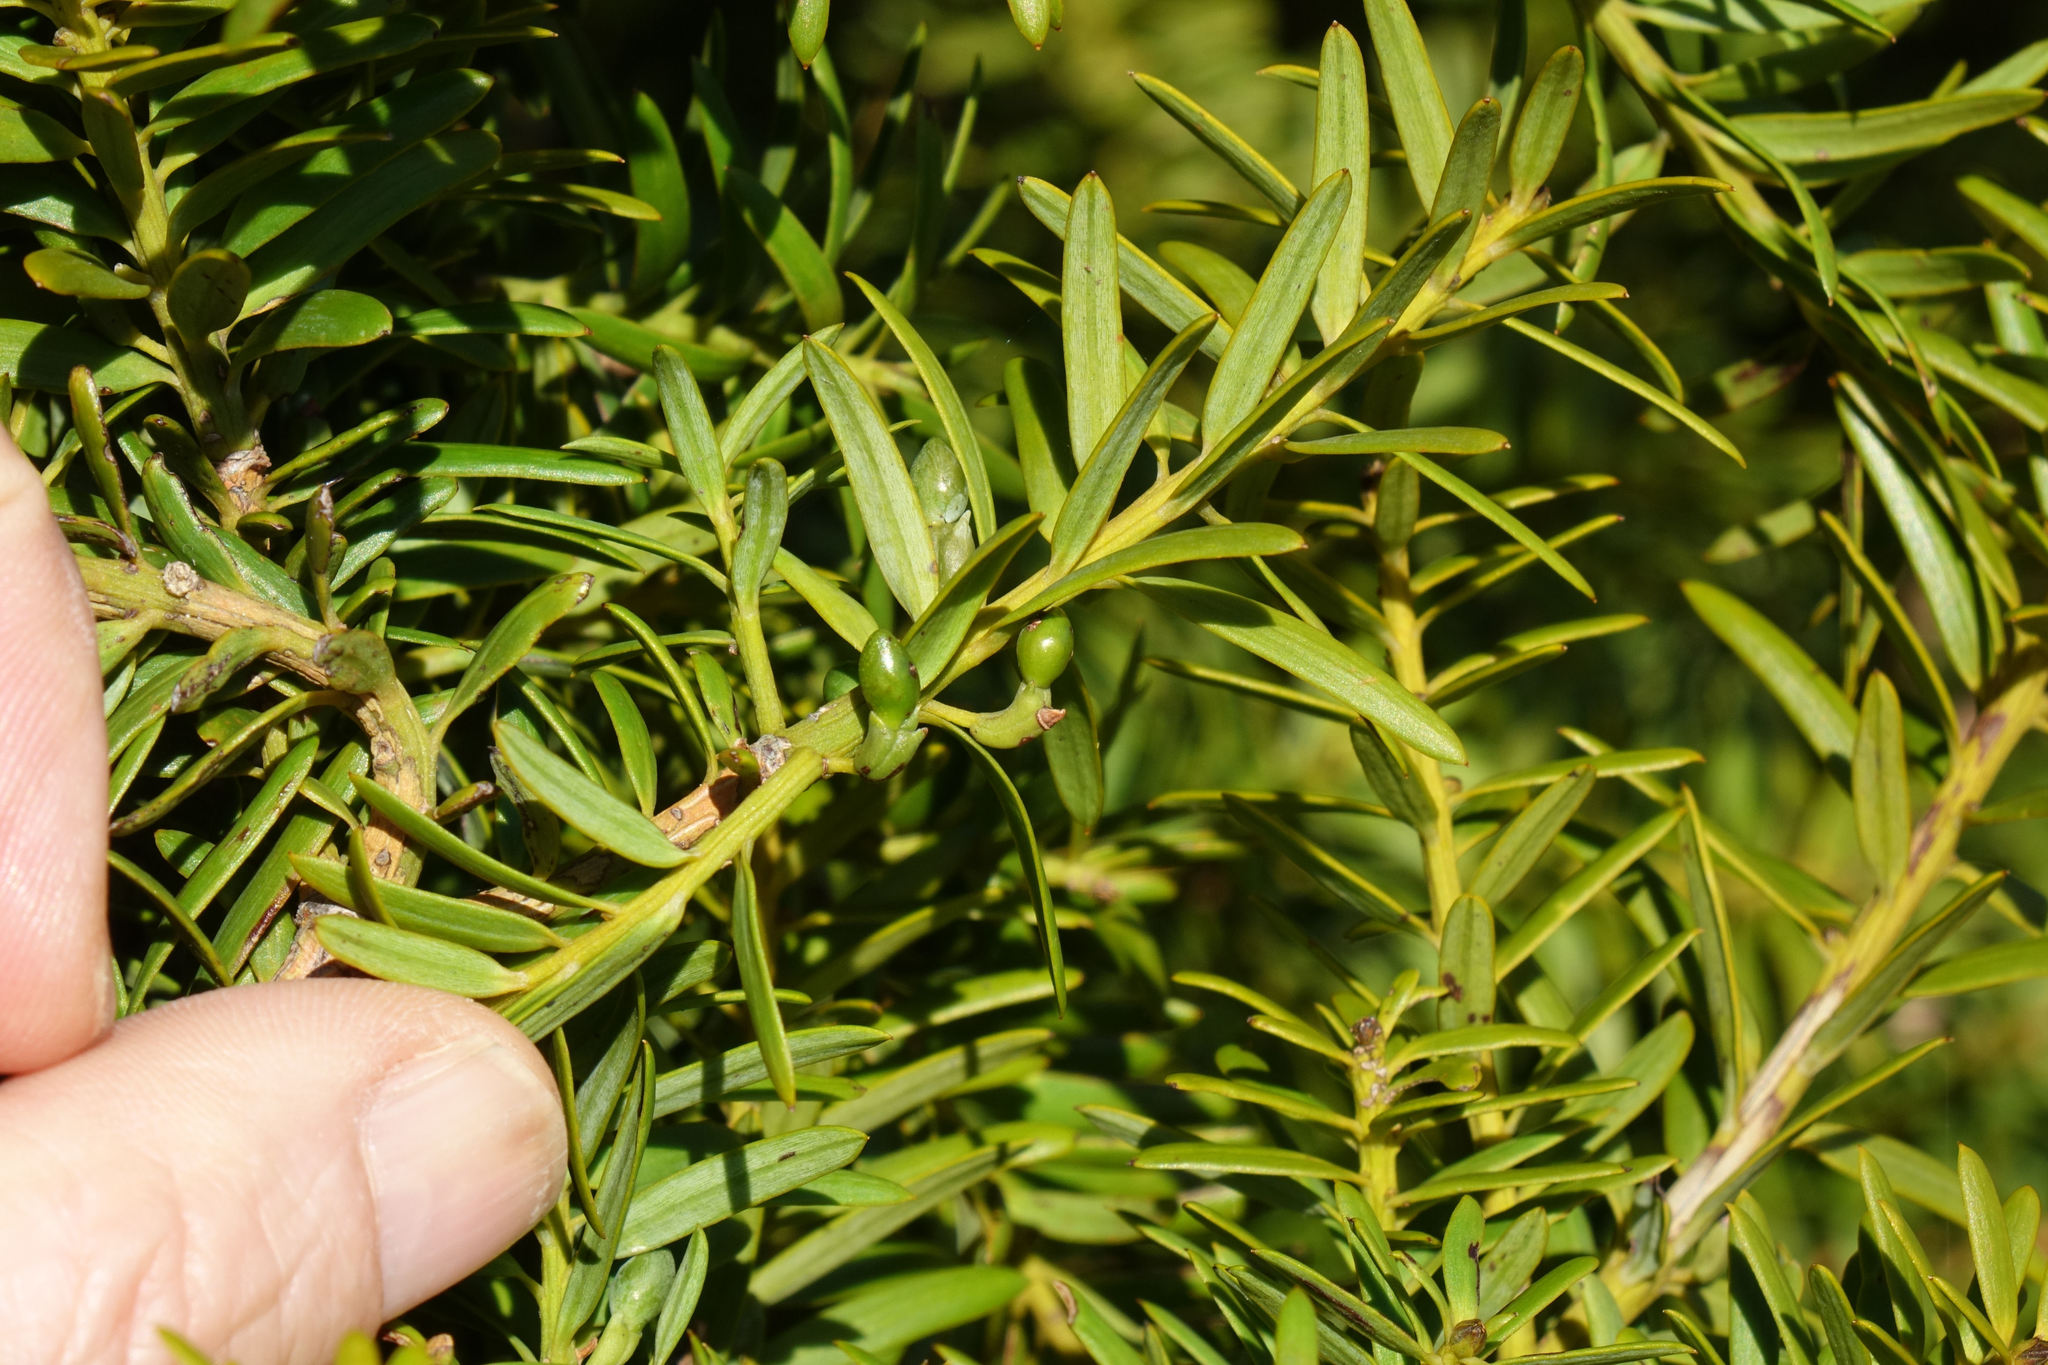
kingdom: Plantae
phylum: Tracheophyta
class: Pinopsida
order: Pinales
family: Podocarpaceae
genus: Podocarpus
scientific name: Podocarpus laetus
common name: Hall's totara
